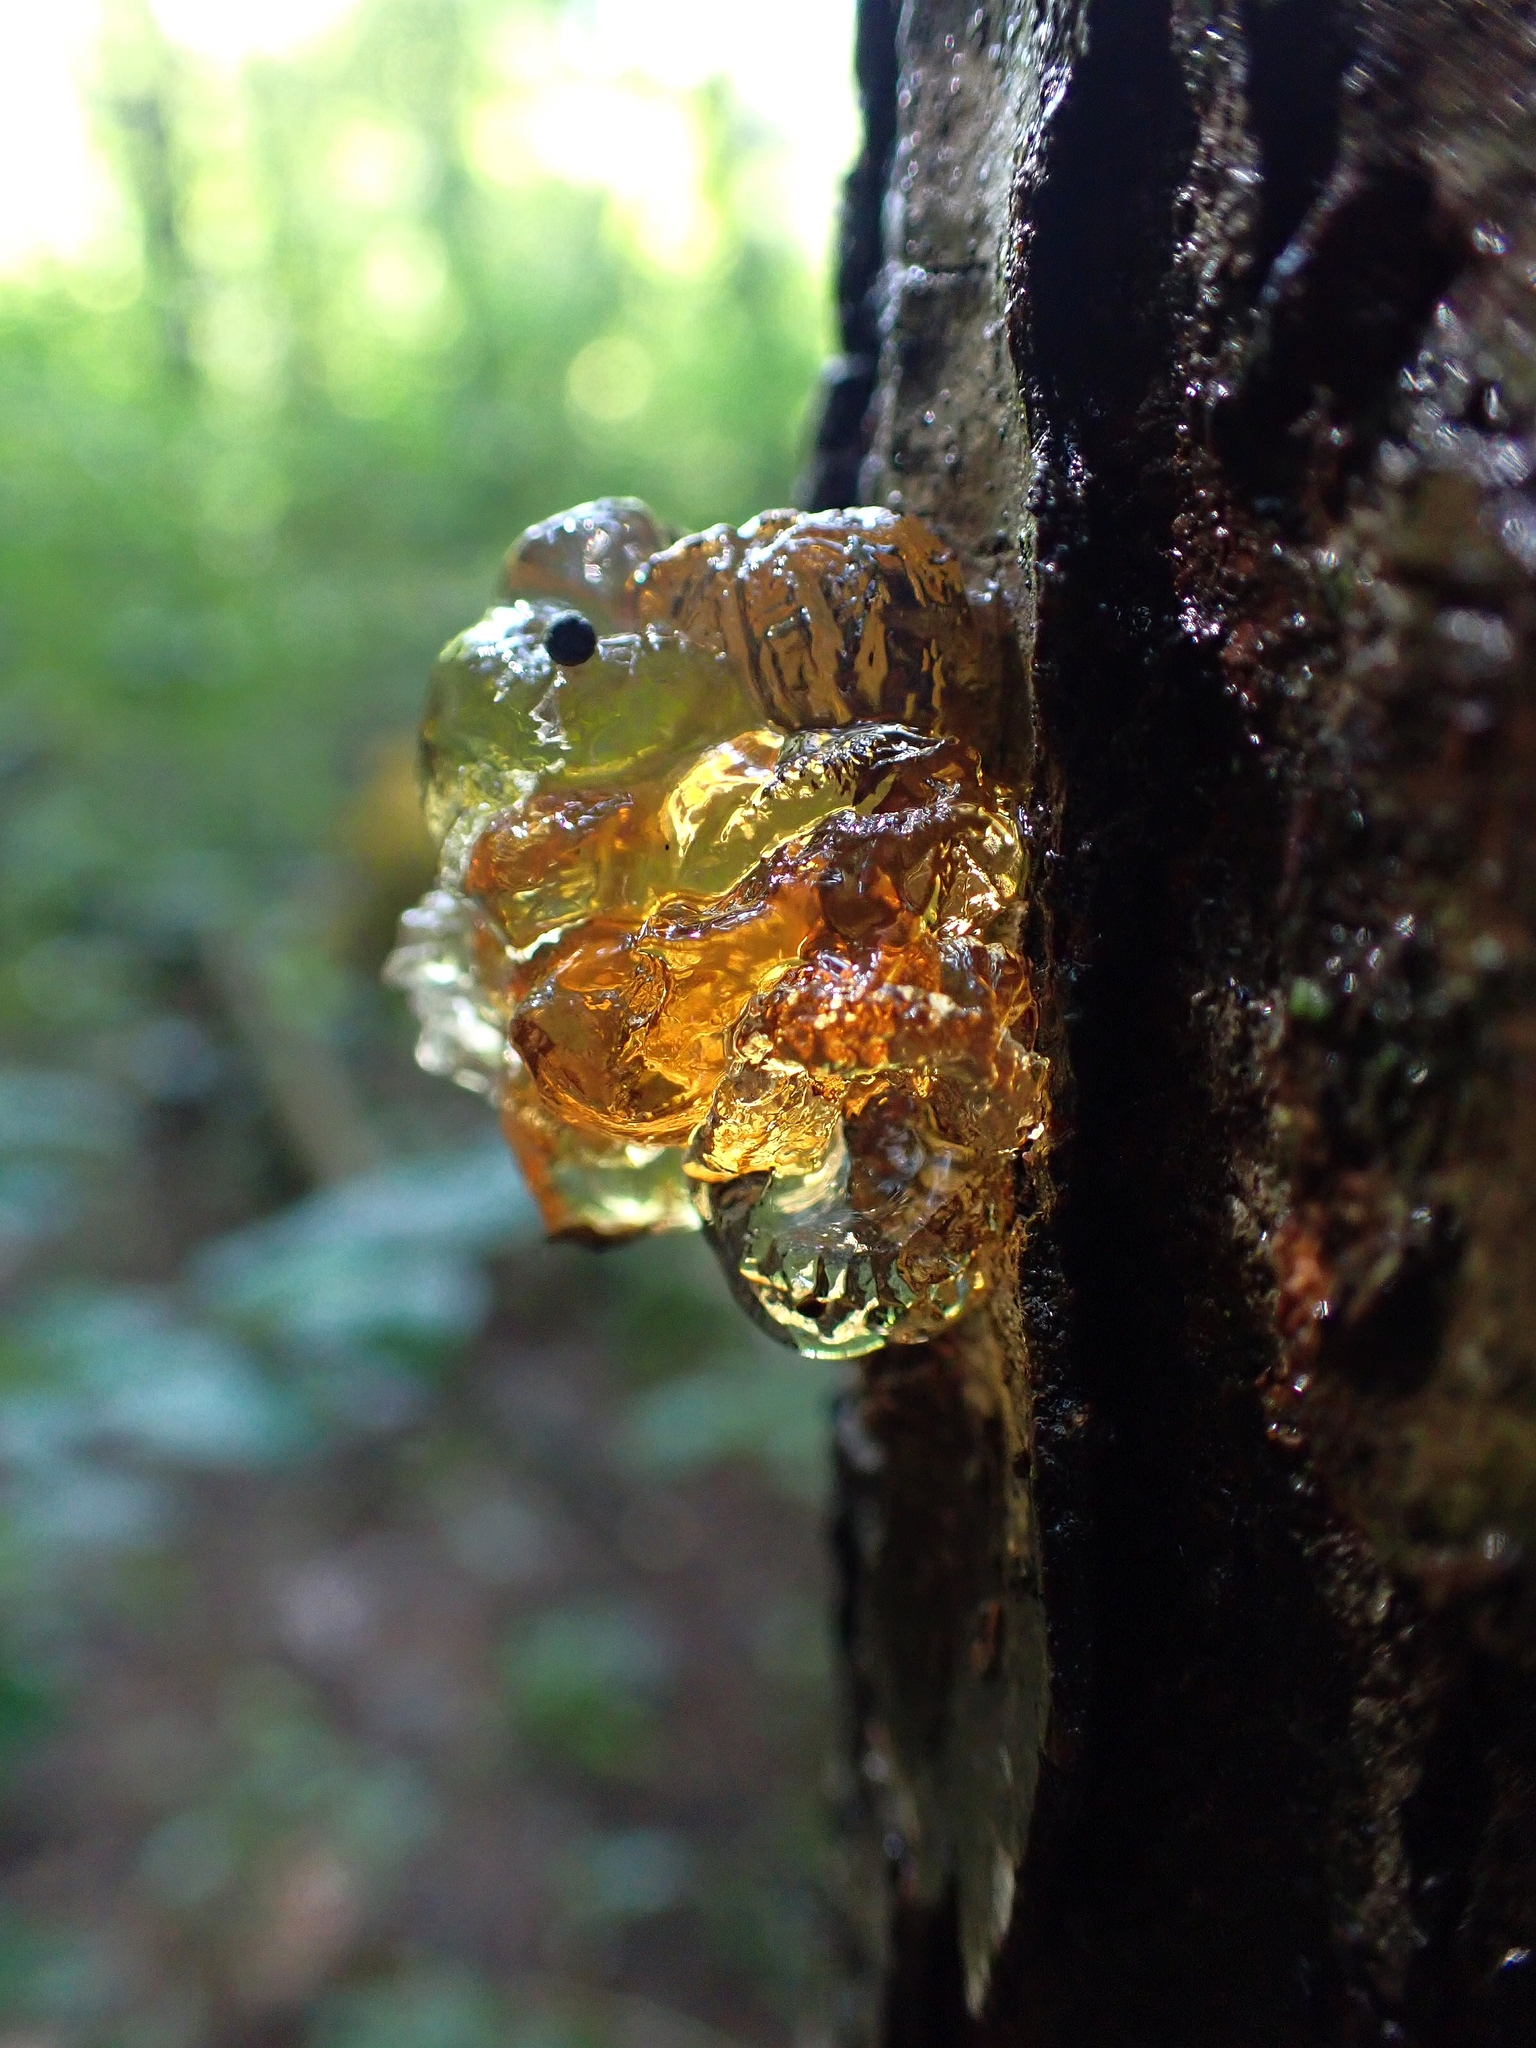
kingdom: Plantae
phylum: Tracheophyta
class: Magnoliopsida
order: Rosales
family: Rosaceae
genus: Prunus
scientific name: Prunus serotina
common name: Black cherry
